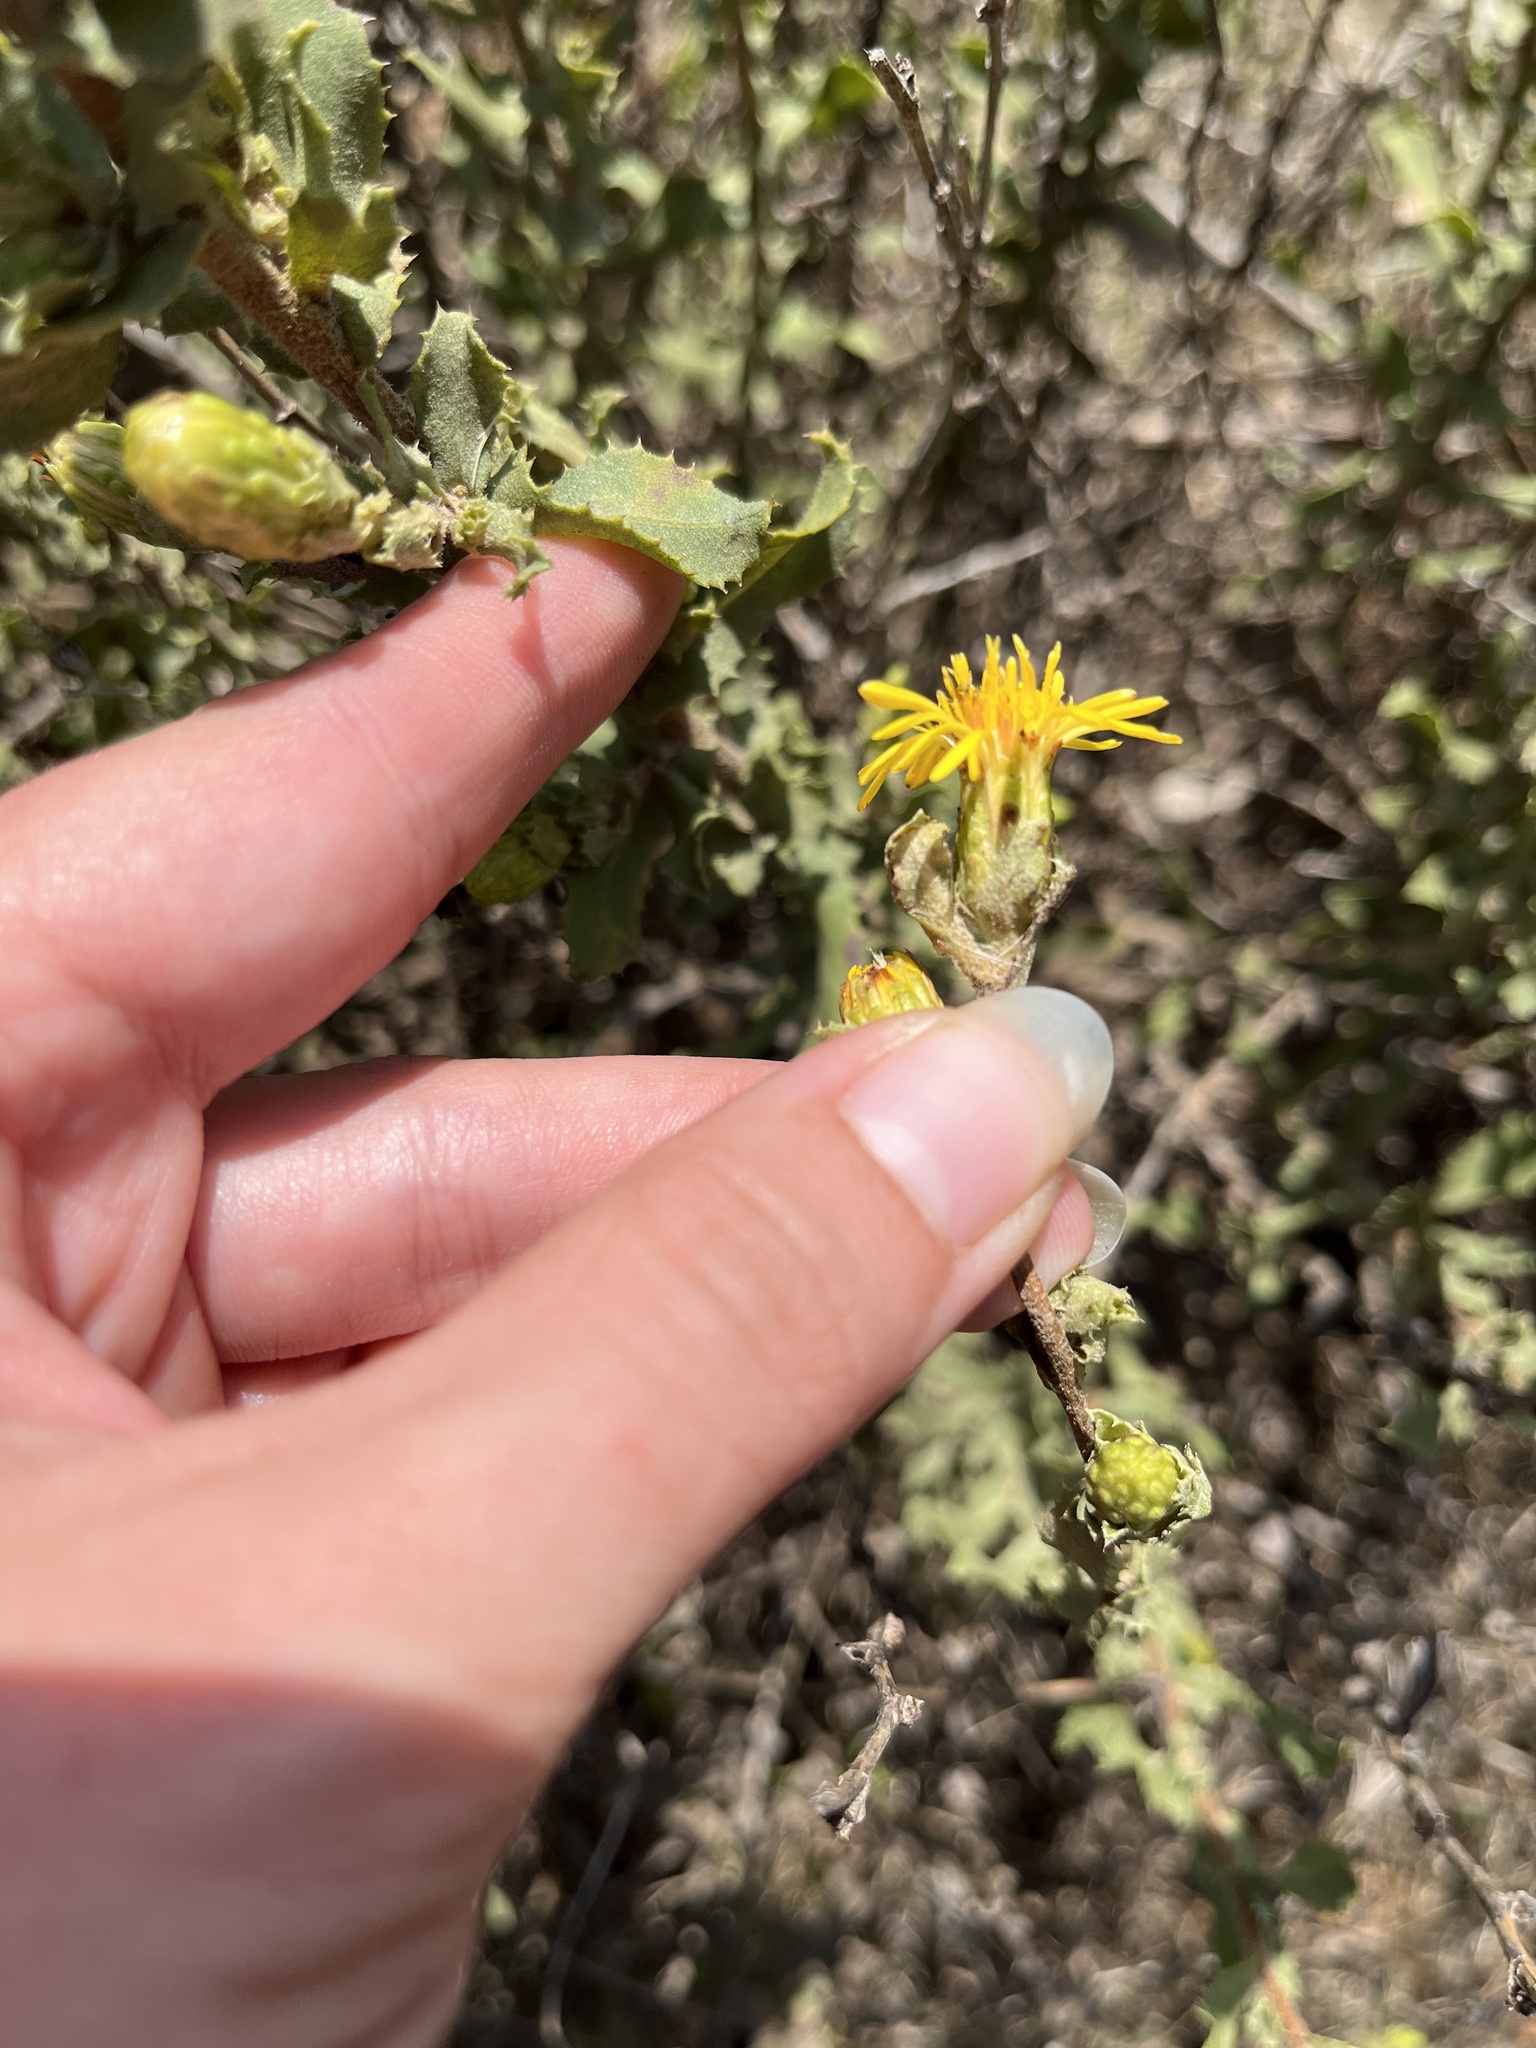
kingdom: Plantae
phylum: Tracheophyta
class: Magnoliopsida
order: Asterales
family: Asteraceae
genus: Hazardia
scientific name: Hazardia berberidis
